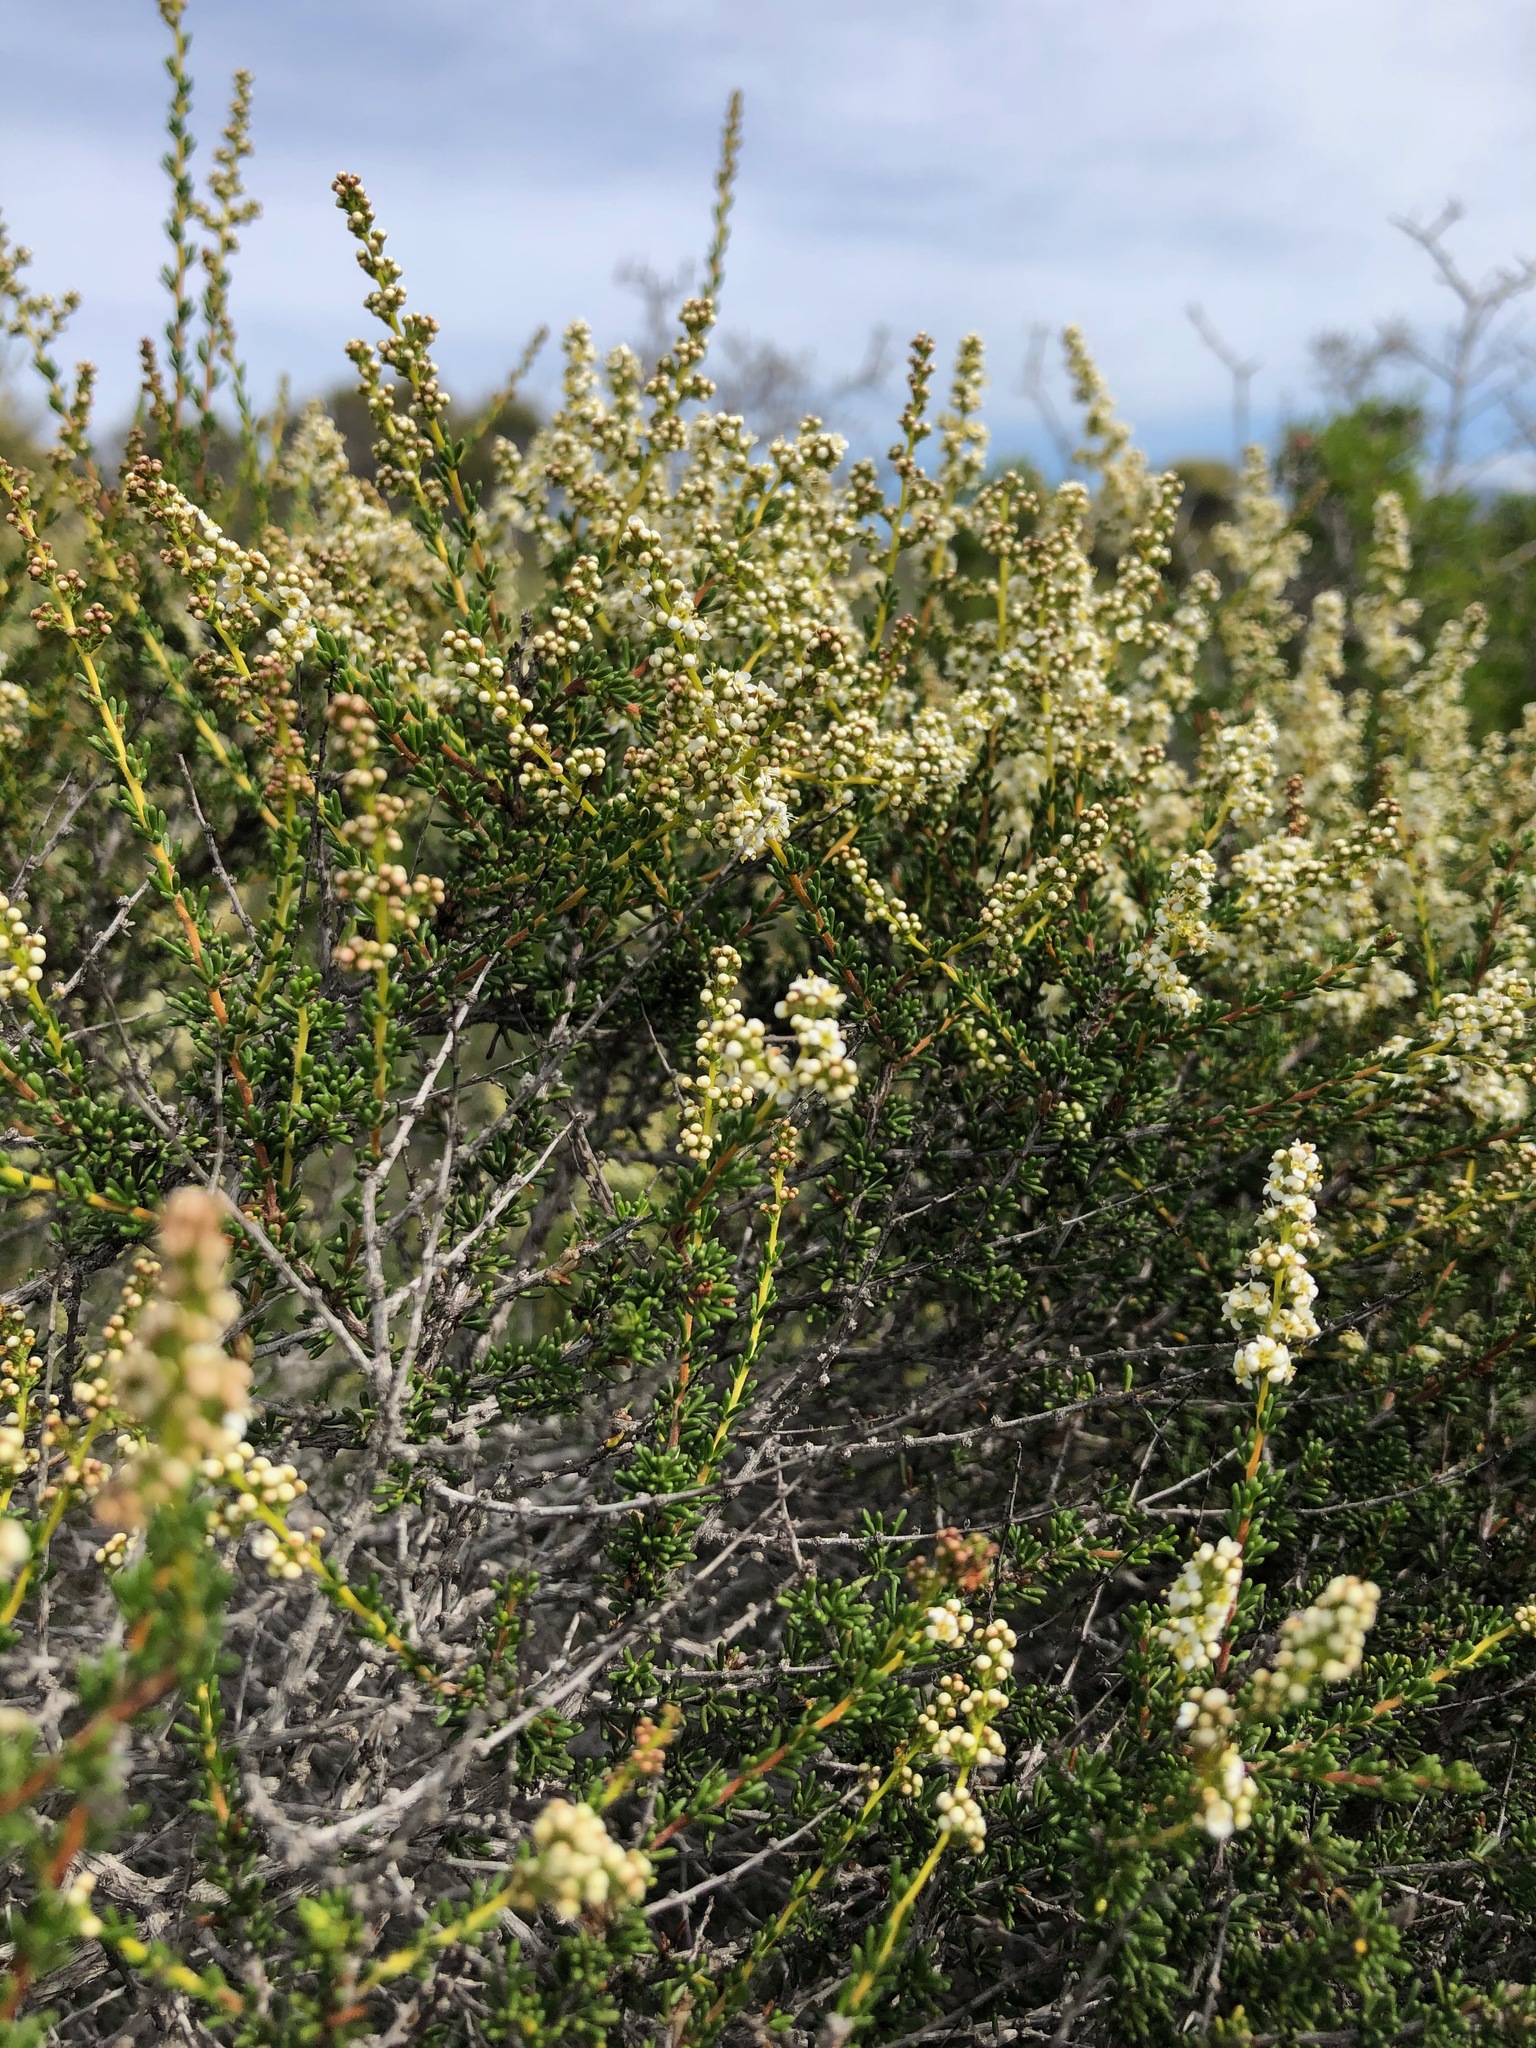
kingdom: Plantae
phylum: Tracheophyta
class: Magnoliopsida
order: Rosales
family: Rosaceae
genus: Adenostoma
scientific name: Adenostoma fasciculatum
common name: Chamise
